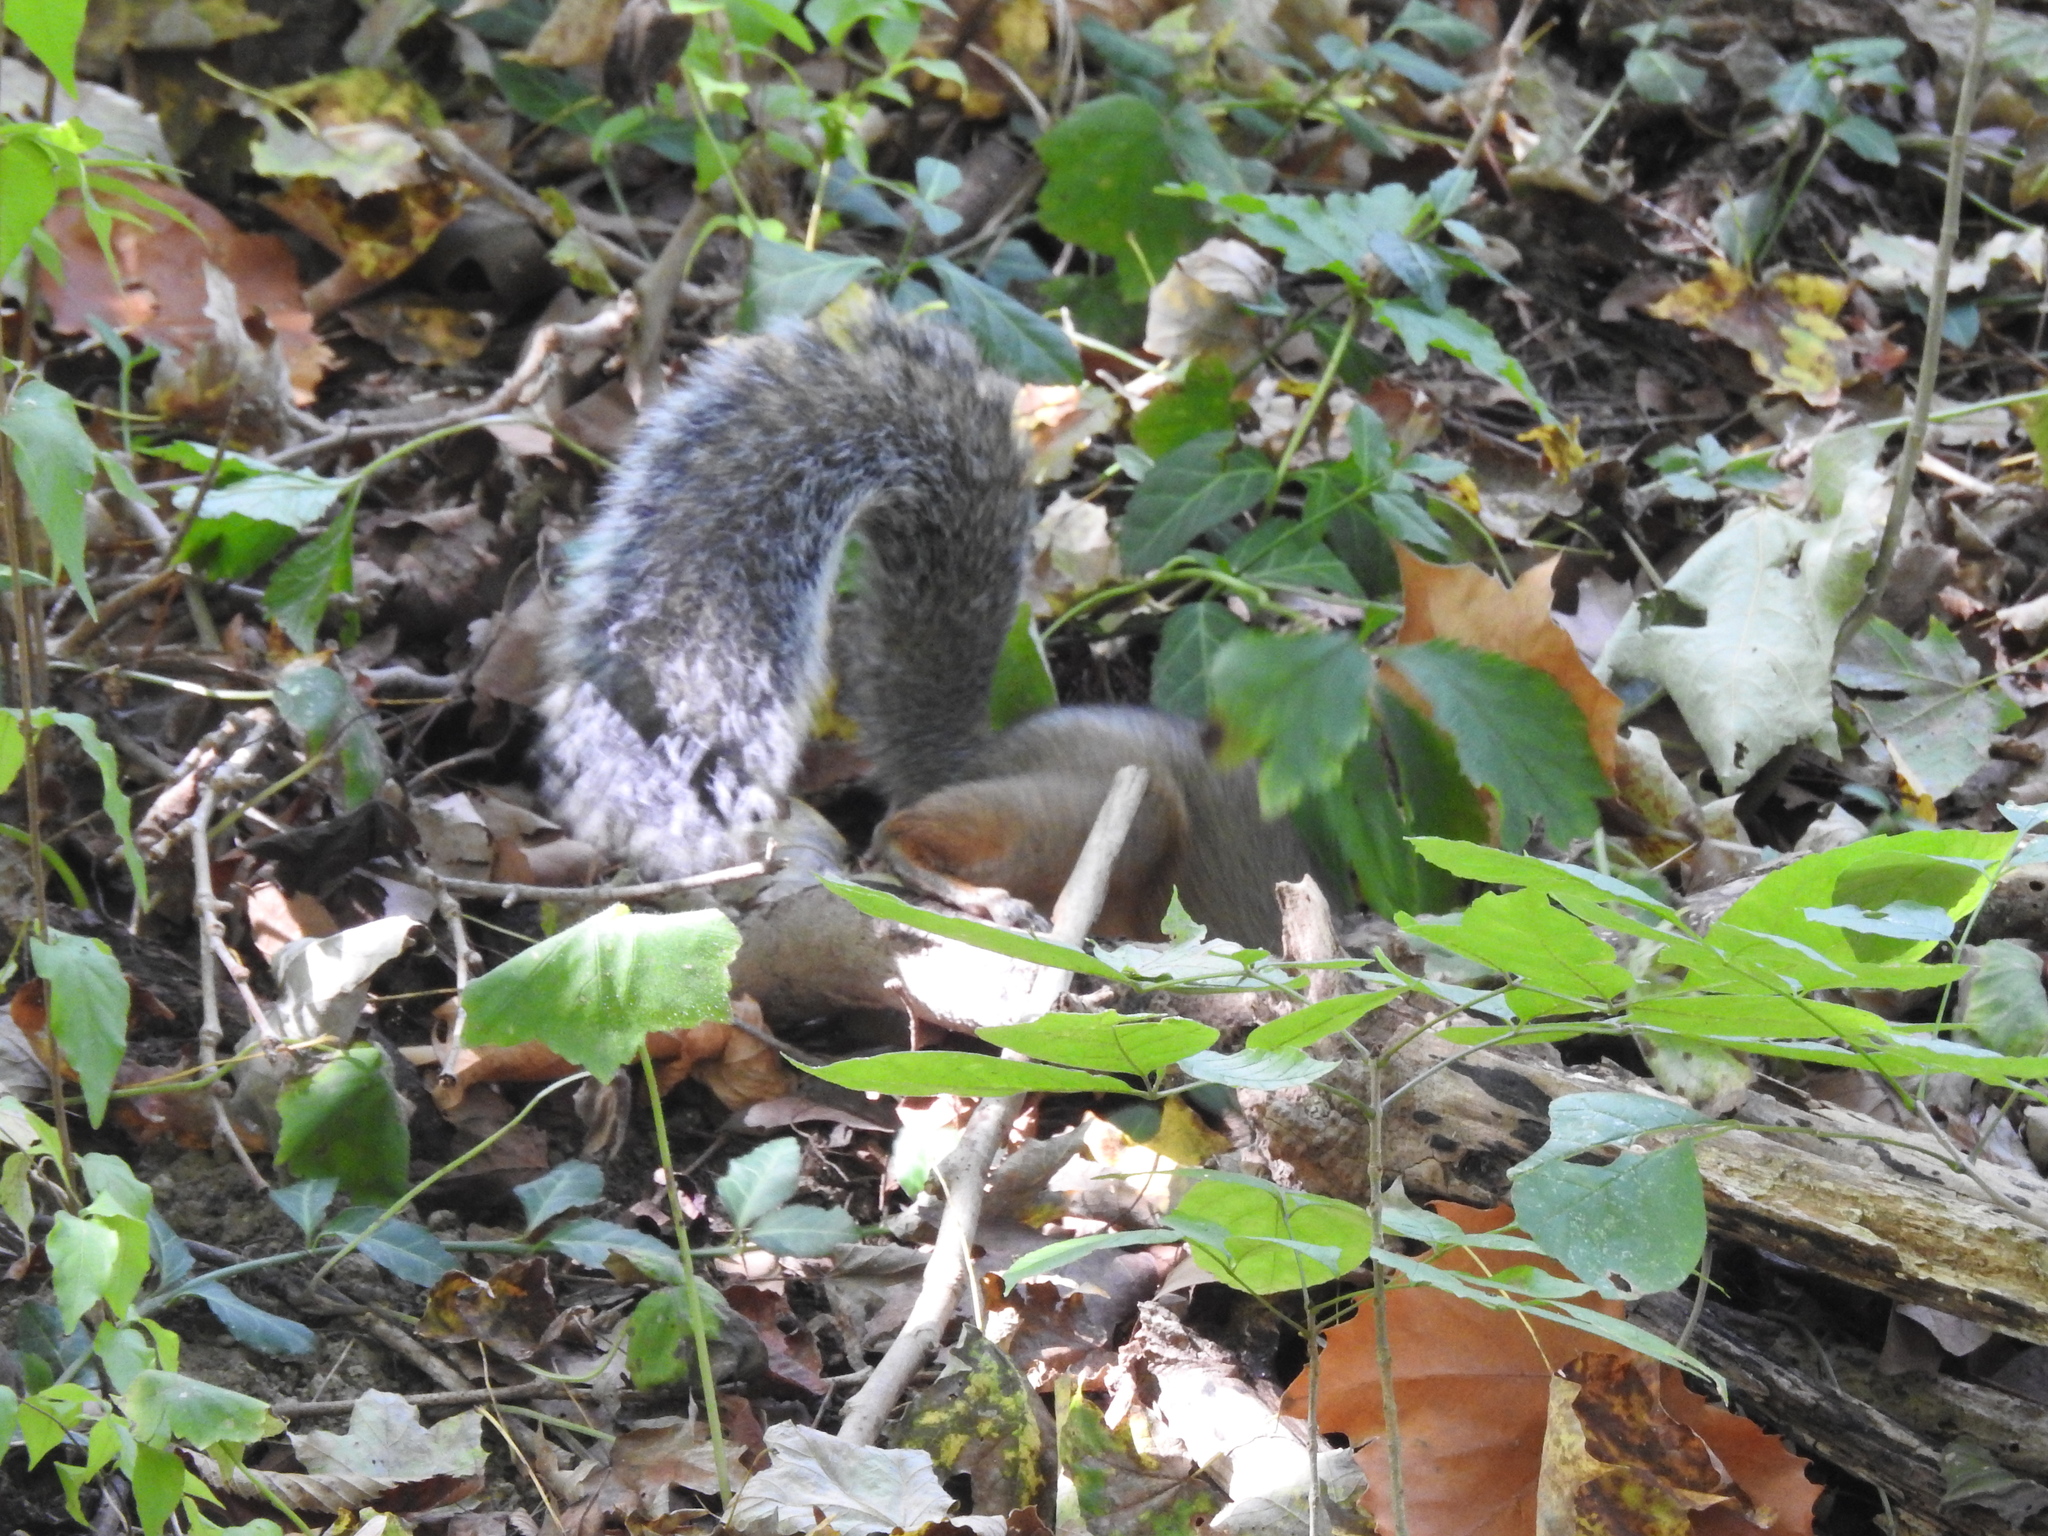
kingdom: Animalia
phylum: Chordata
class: Mammalia
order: Rodentia
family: Sciuridae
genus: Sciurus
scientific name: Sciurus carolinensis
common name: Eastern gray squirrel
